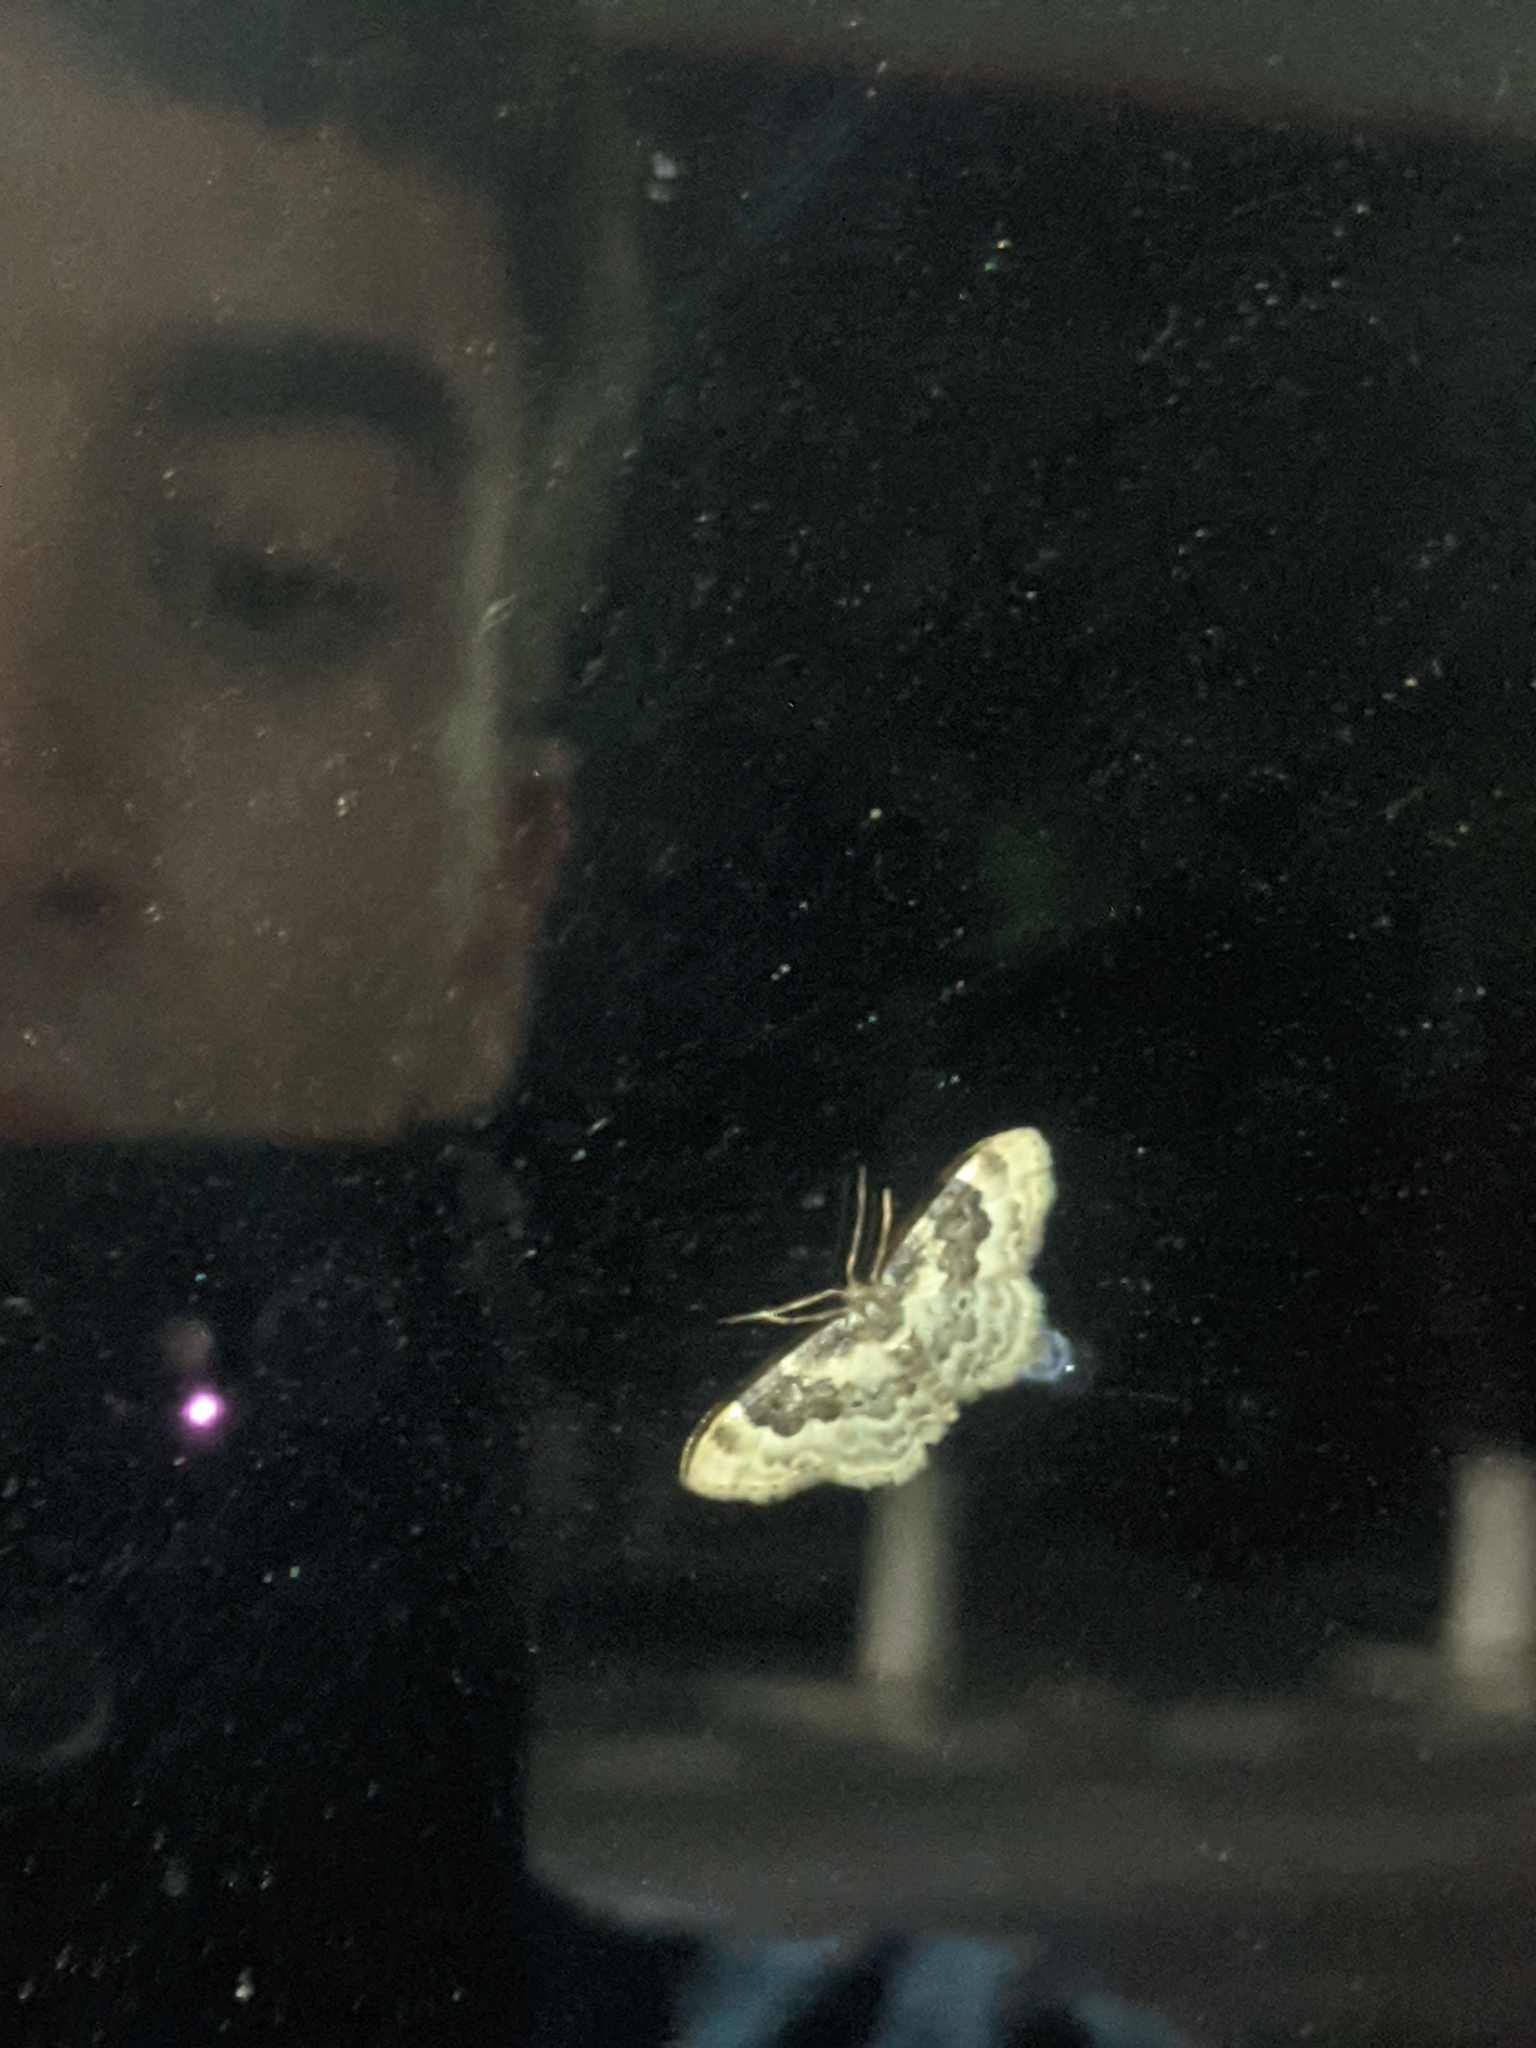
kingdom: Animalia
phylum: Arthropoda
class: Insecta
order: Lepidoptera
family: Geometridae
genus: Idaea
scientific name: Idaea rusticata
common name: Least carpet
